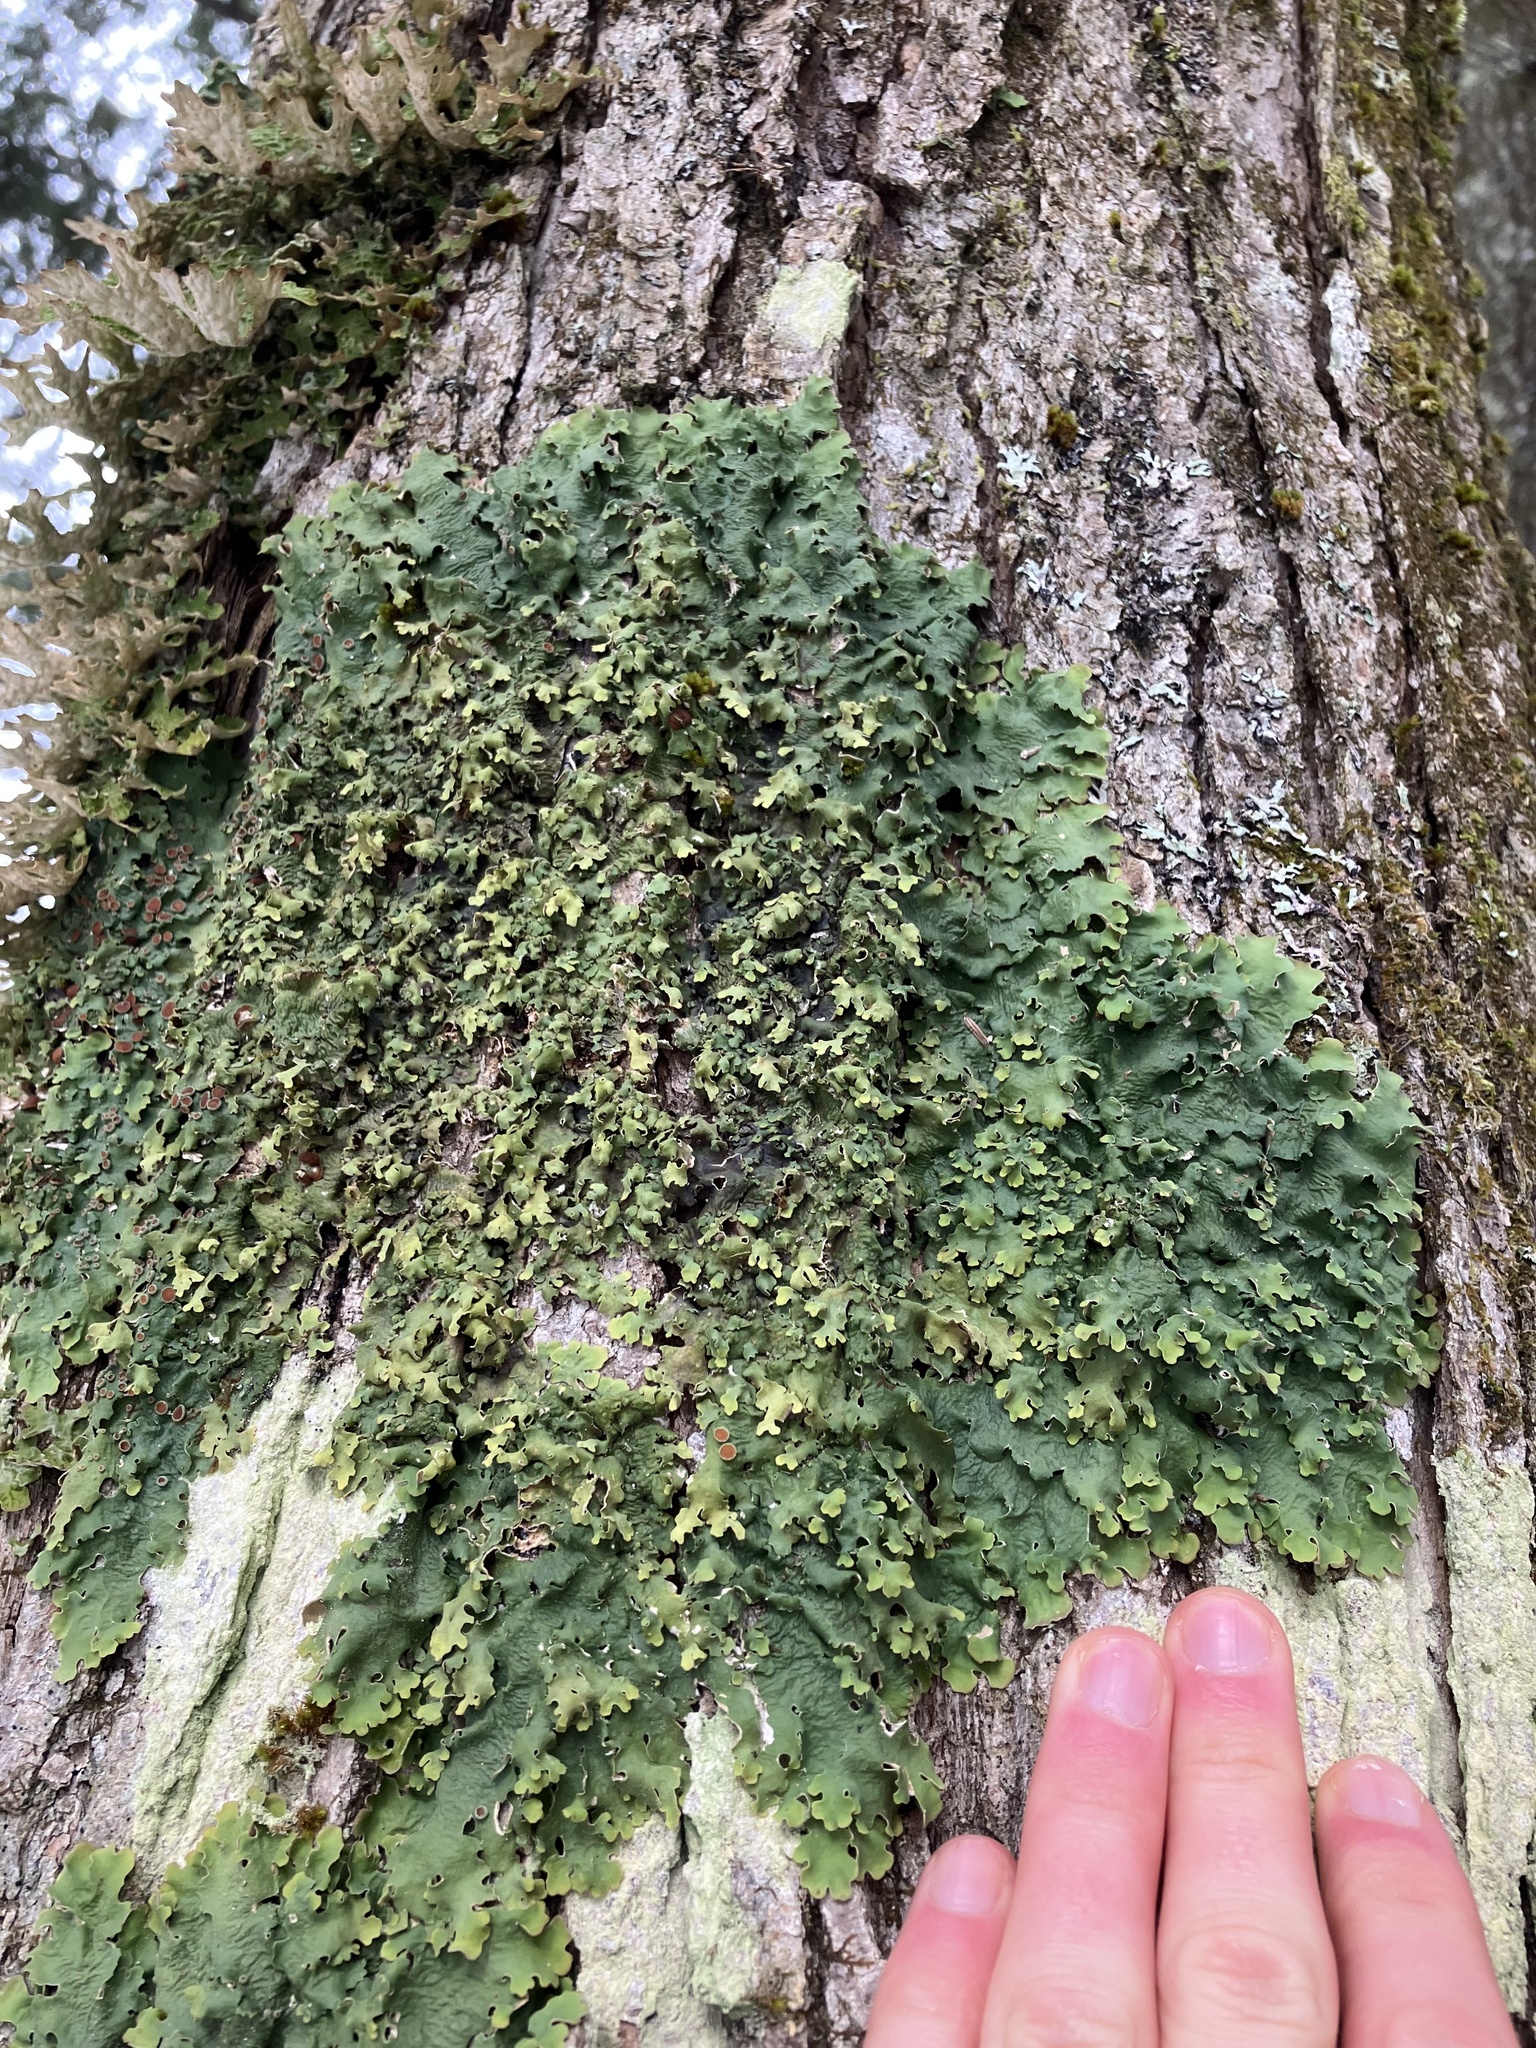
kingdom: Fungi
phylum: Ascomycota
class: Lecanoromycetes
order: Peltigerales
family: Lobariaceae
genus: Ricasolia
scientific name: Ricasolia quercizans
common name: Smooth lungwort
